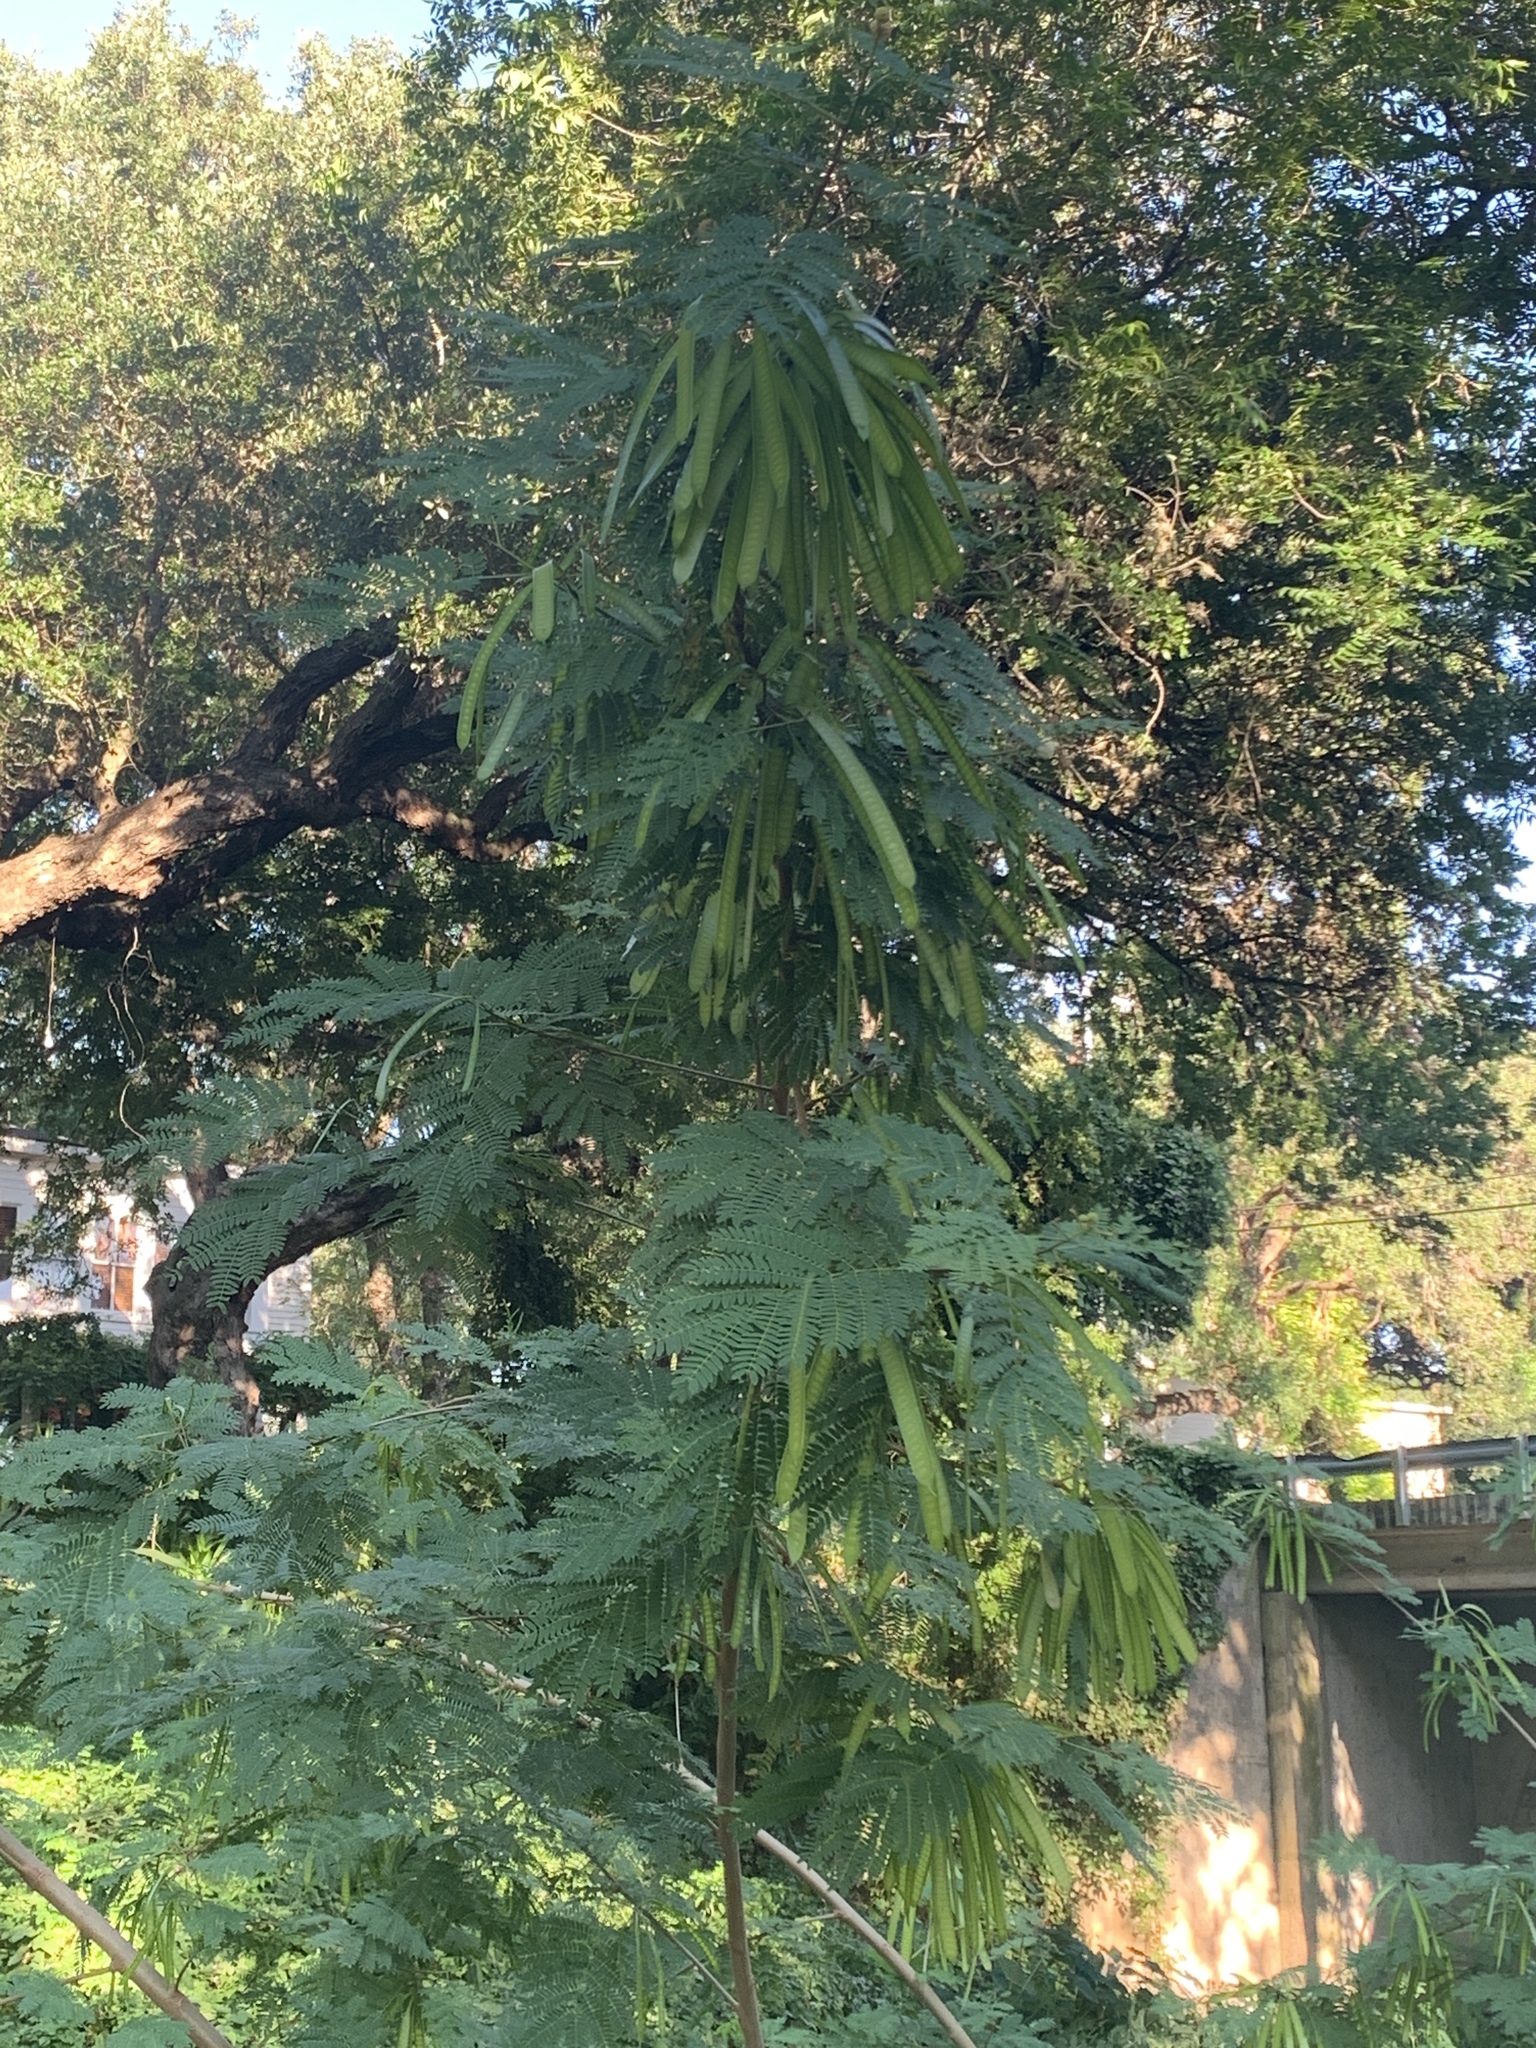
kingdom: Plantae
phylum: Tracheophyta
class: Magnoliopsida
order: Fabales
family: Fabaceae
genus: Albizia
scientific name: Albizia julibrissin
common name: Silktree
